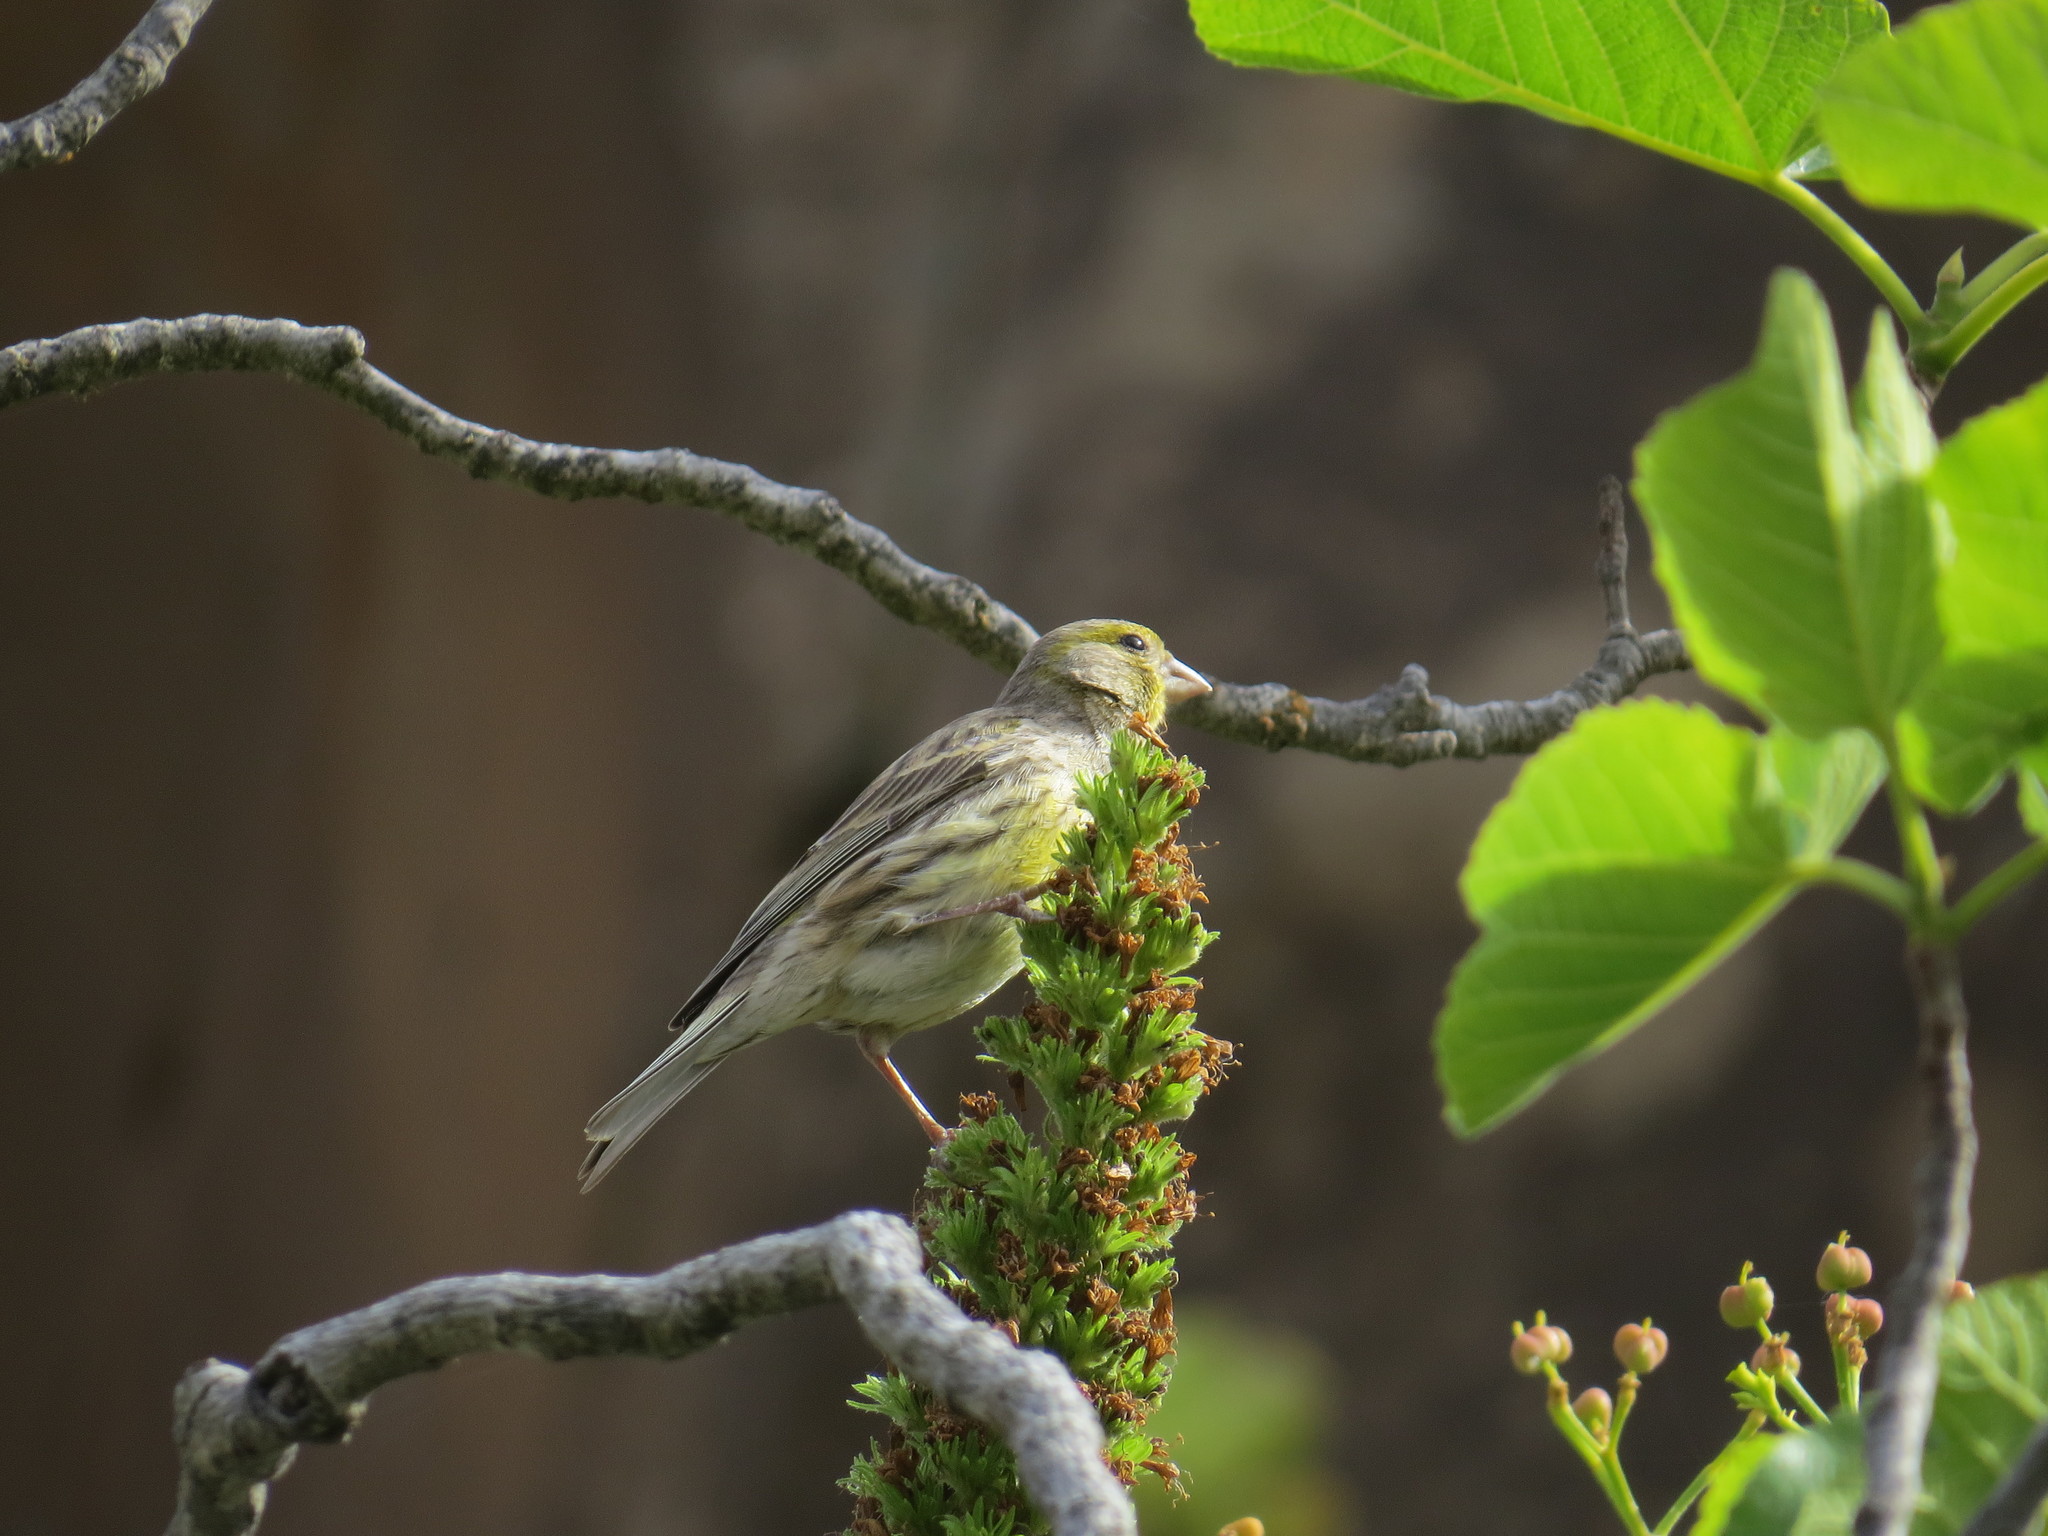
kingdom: Animalia
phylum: Chordata
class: Aves
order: Passeriformes
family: Fringillidae
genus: Serinus
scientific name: Serinus canaria
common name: Atlantic canary
